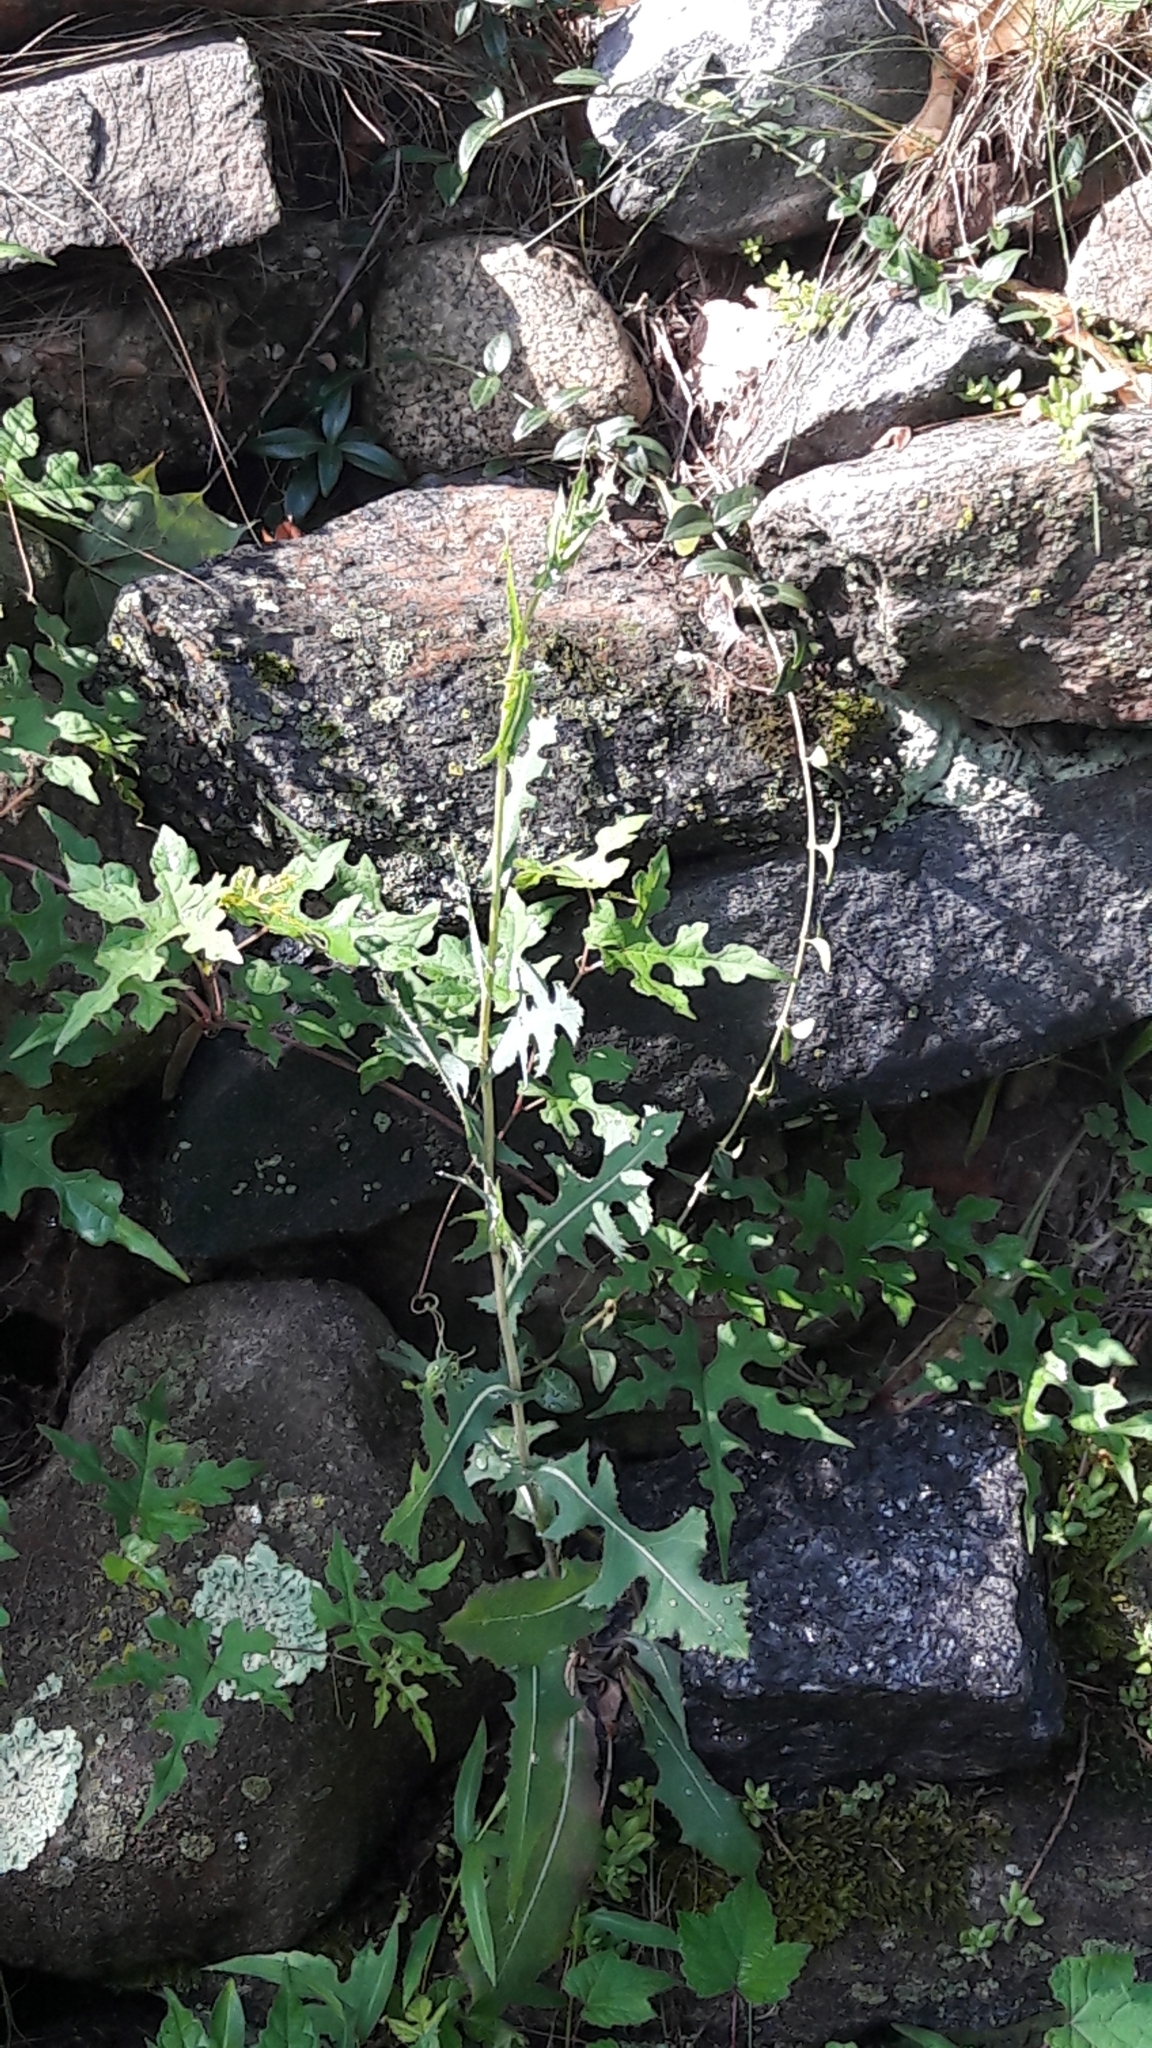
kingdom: Plantae
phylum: Tracheophyta
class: Magnoliopsida
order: Asterales
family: Asteraceae
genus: Lactuca
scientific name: Lactuca serriola
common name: Prickly lettuce
